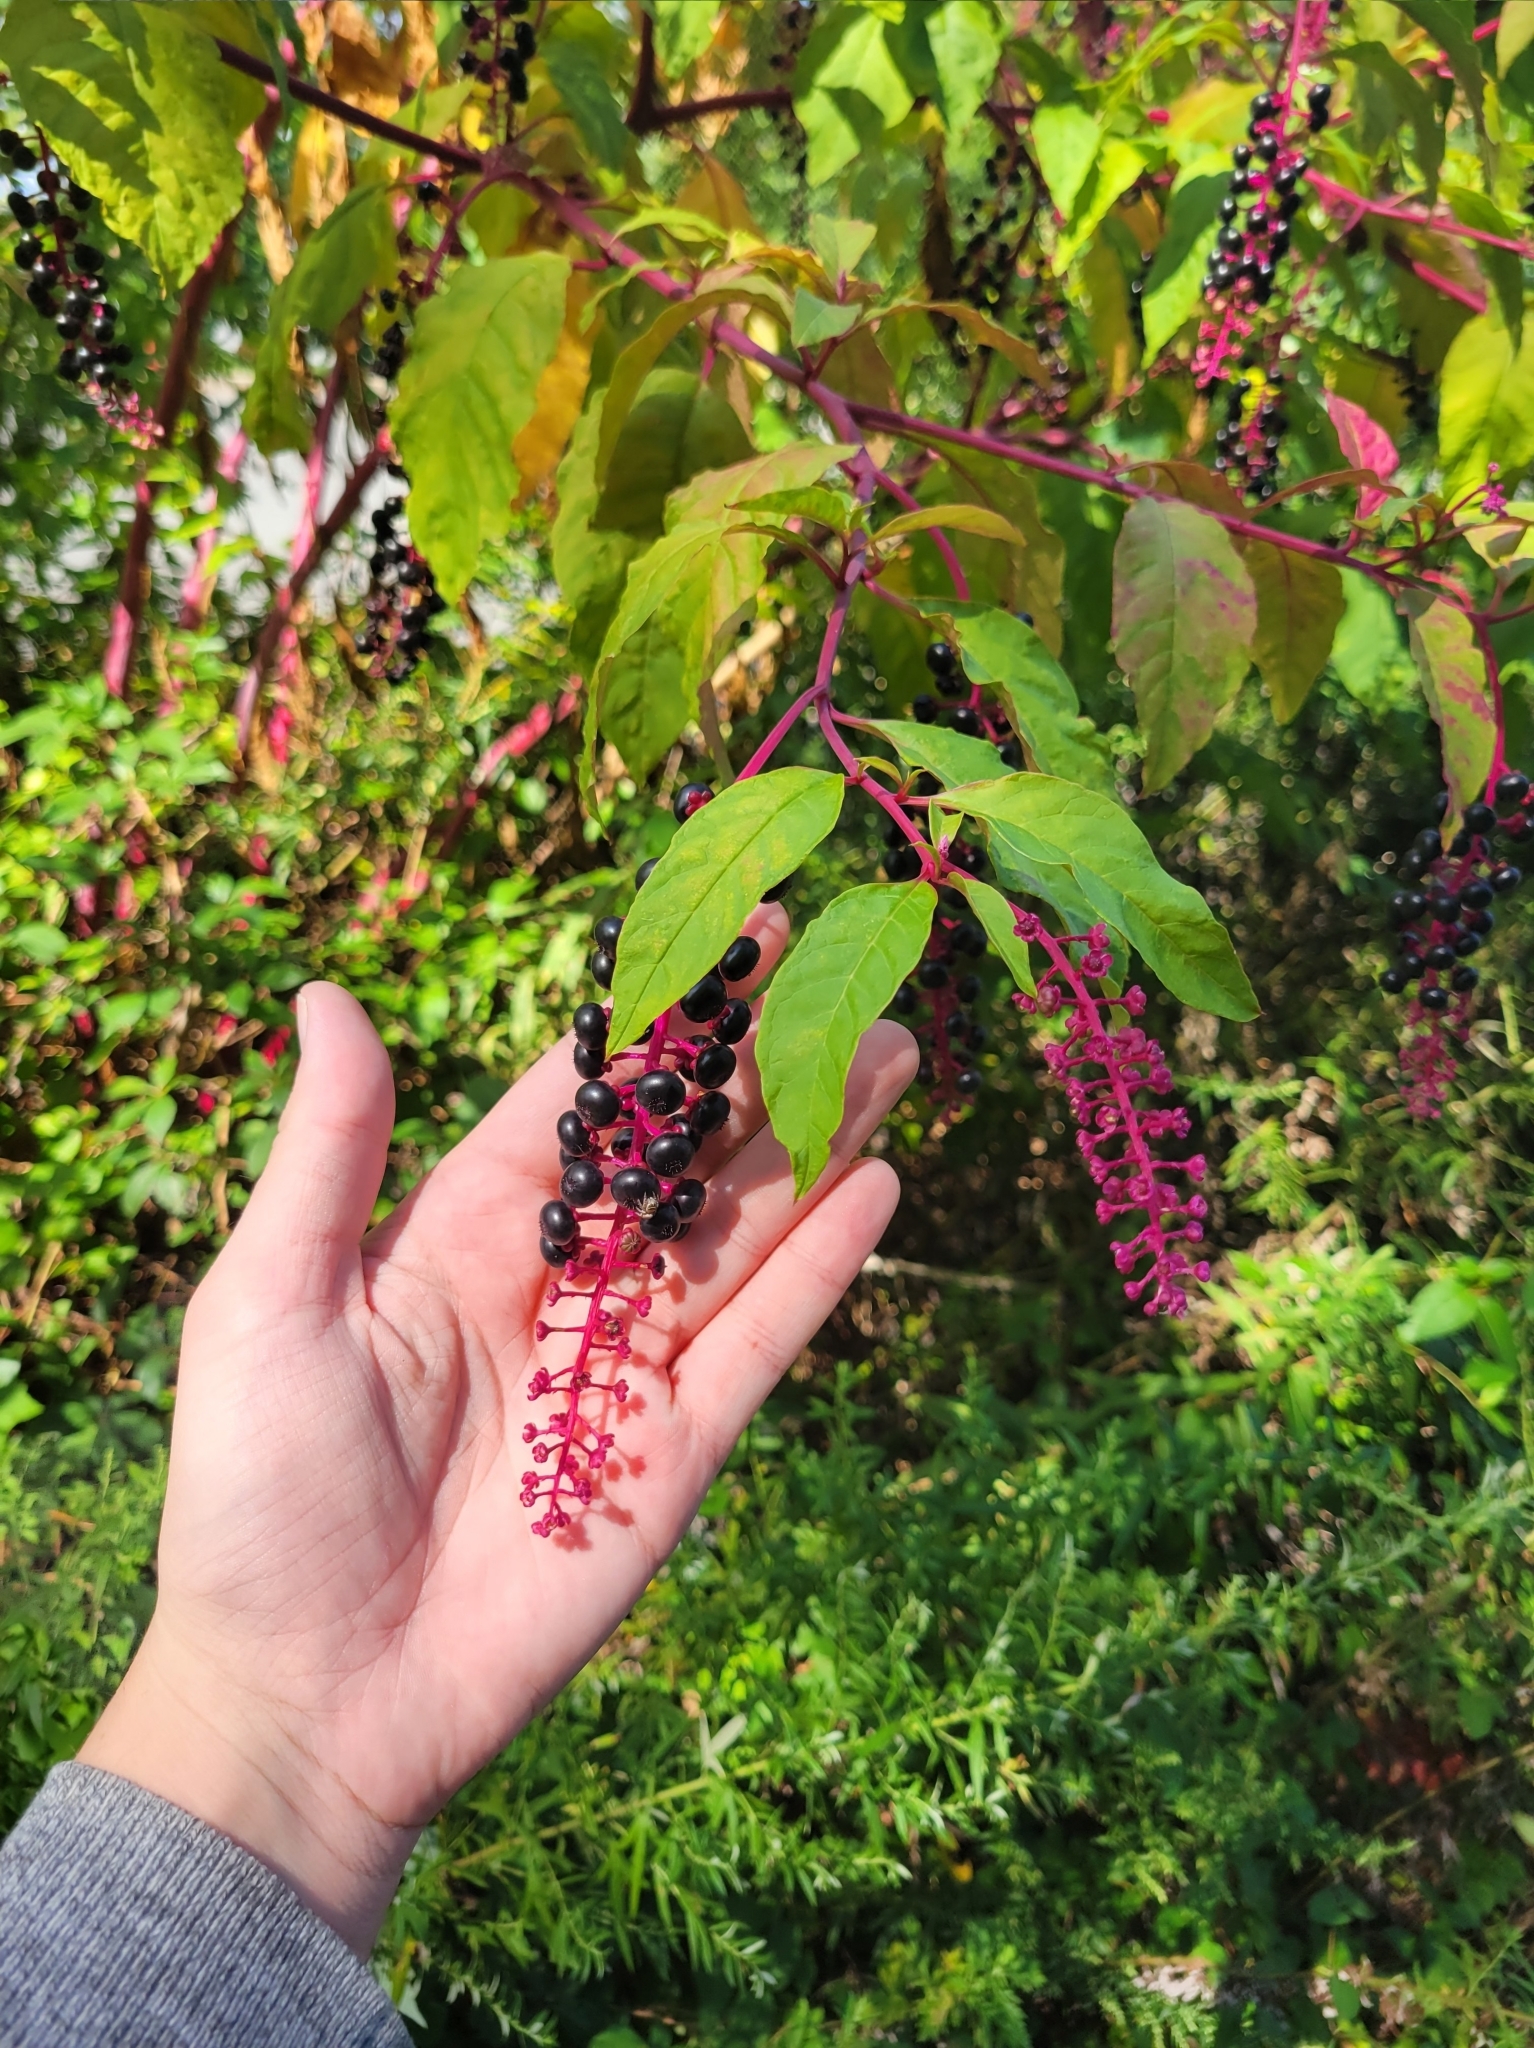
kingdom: Plantae
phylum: Tracheophyta
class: Magnoliopsida
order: Caryophyllales
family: Phytolaccaceae
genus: Phytolacca
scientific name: Phytolacca americana
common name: American pokeweed
